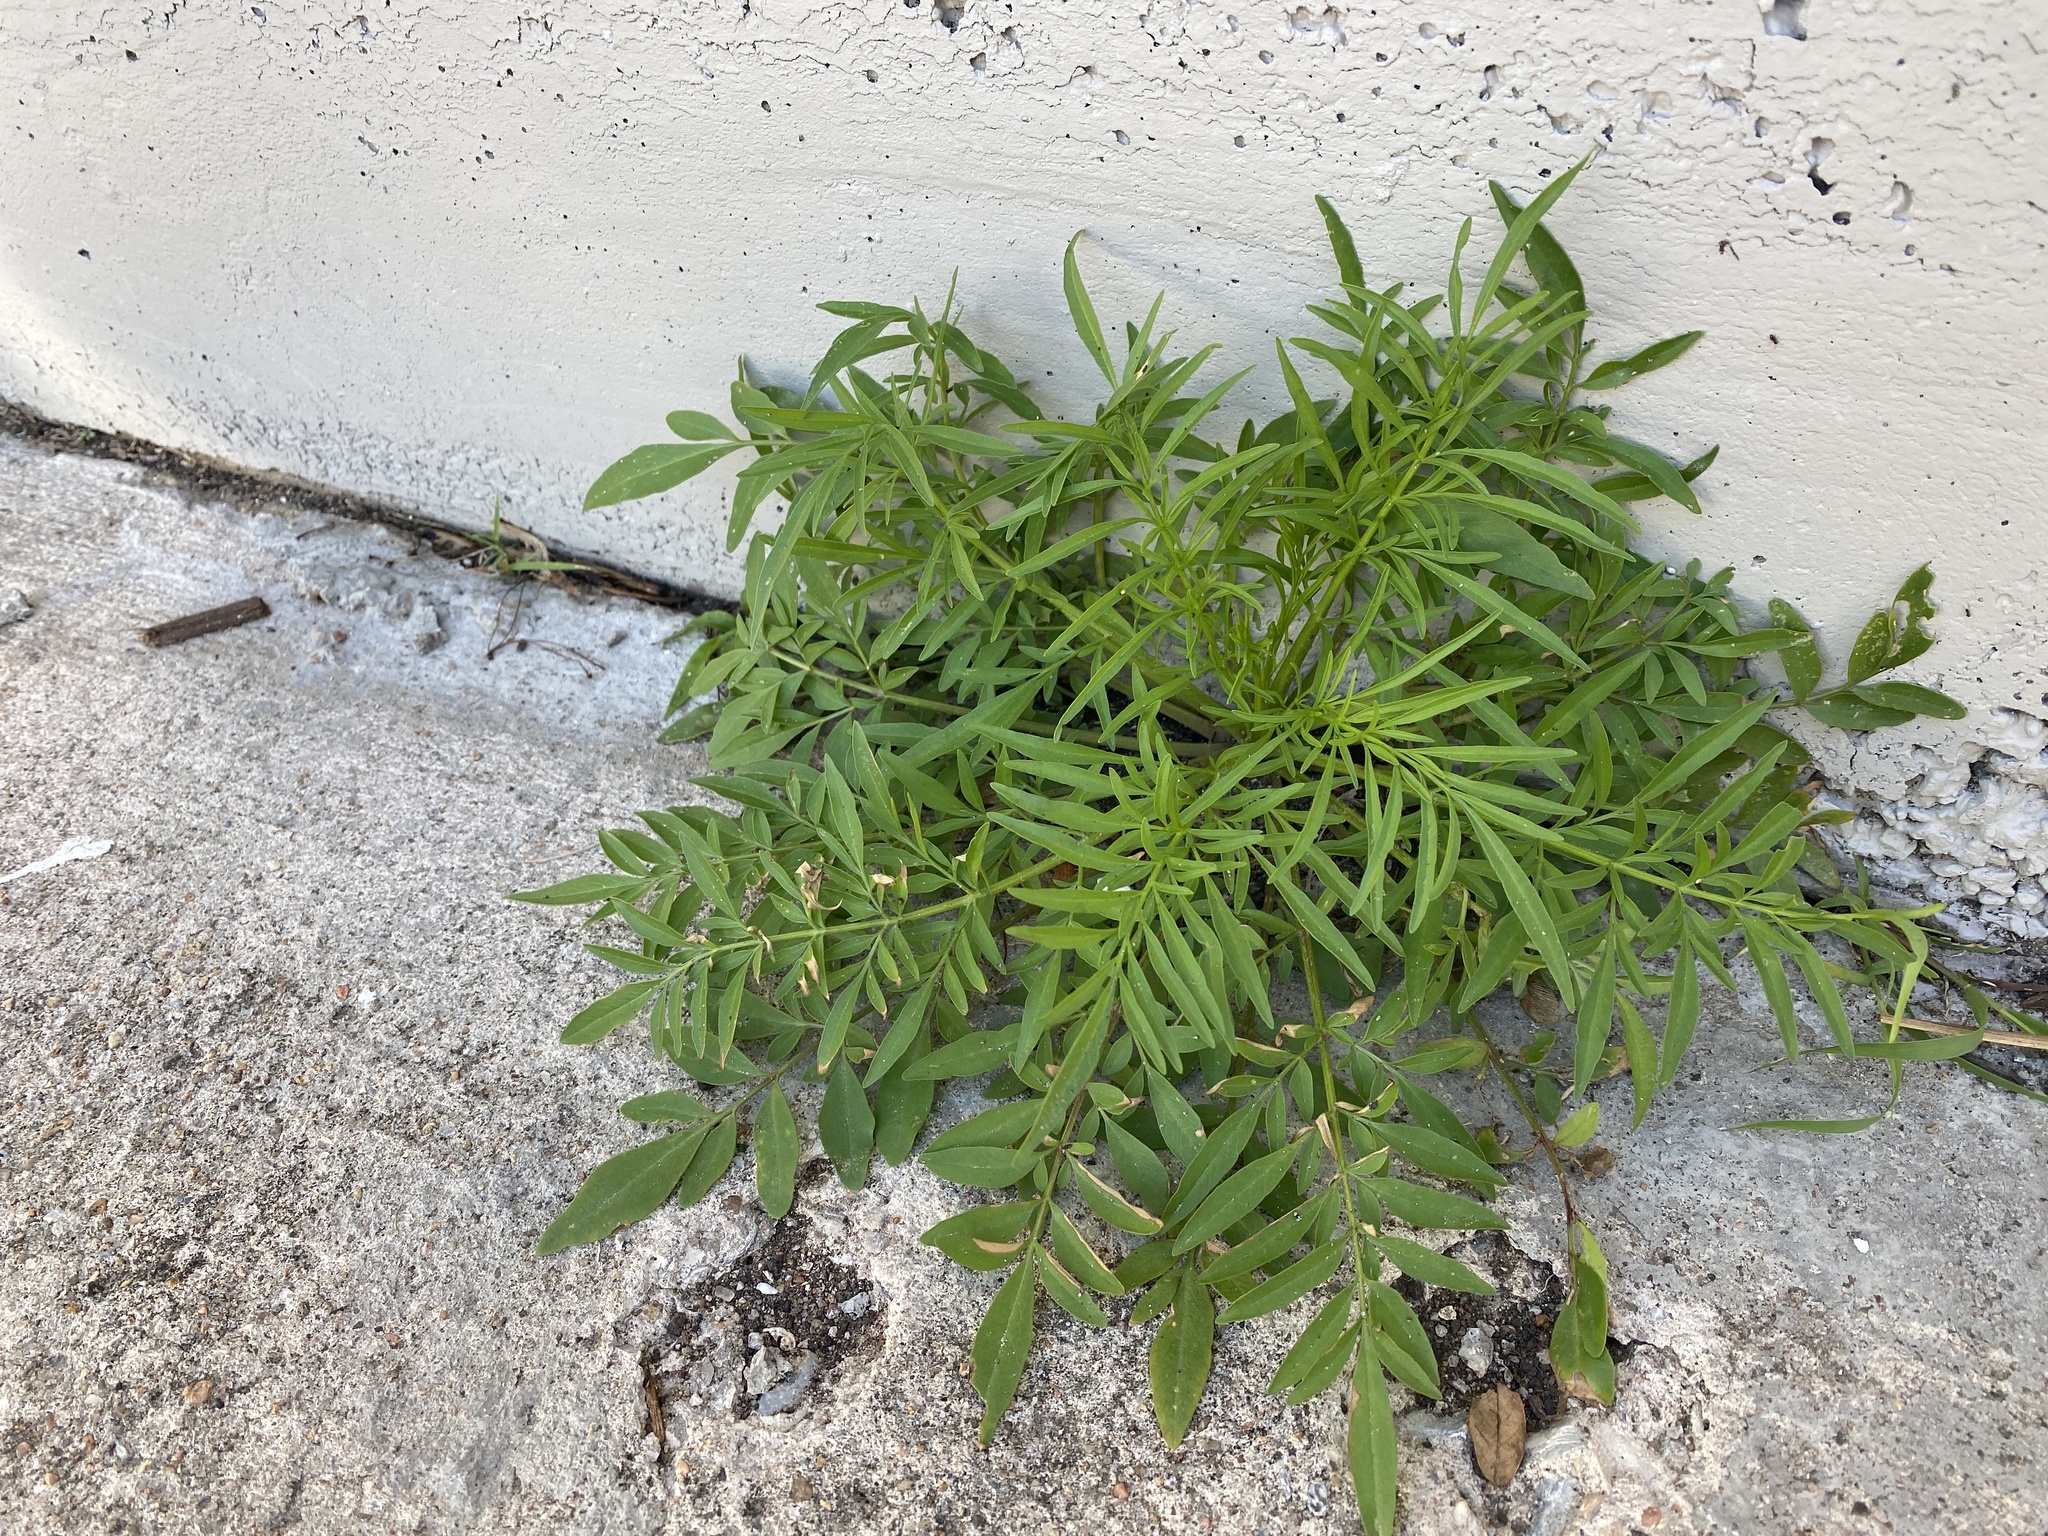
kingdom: Plantae
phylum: Tracheophyta
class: Magnoliopsida
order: Asterales
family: Asteraceae
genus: Coreopsis
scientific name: Coreopsis tinctoria
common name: Garden tickseed
